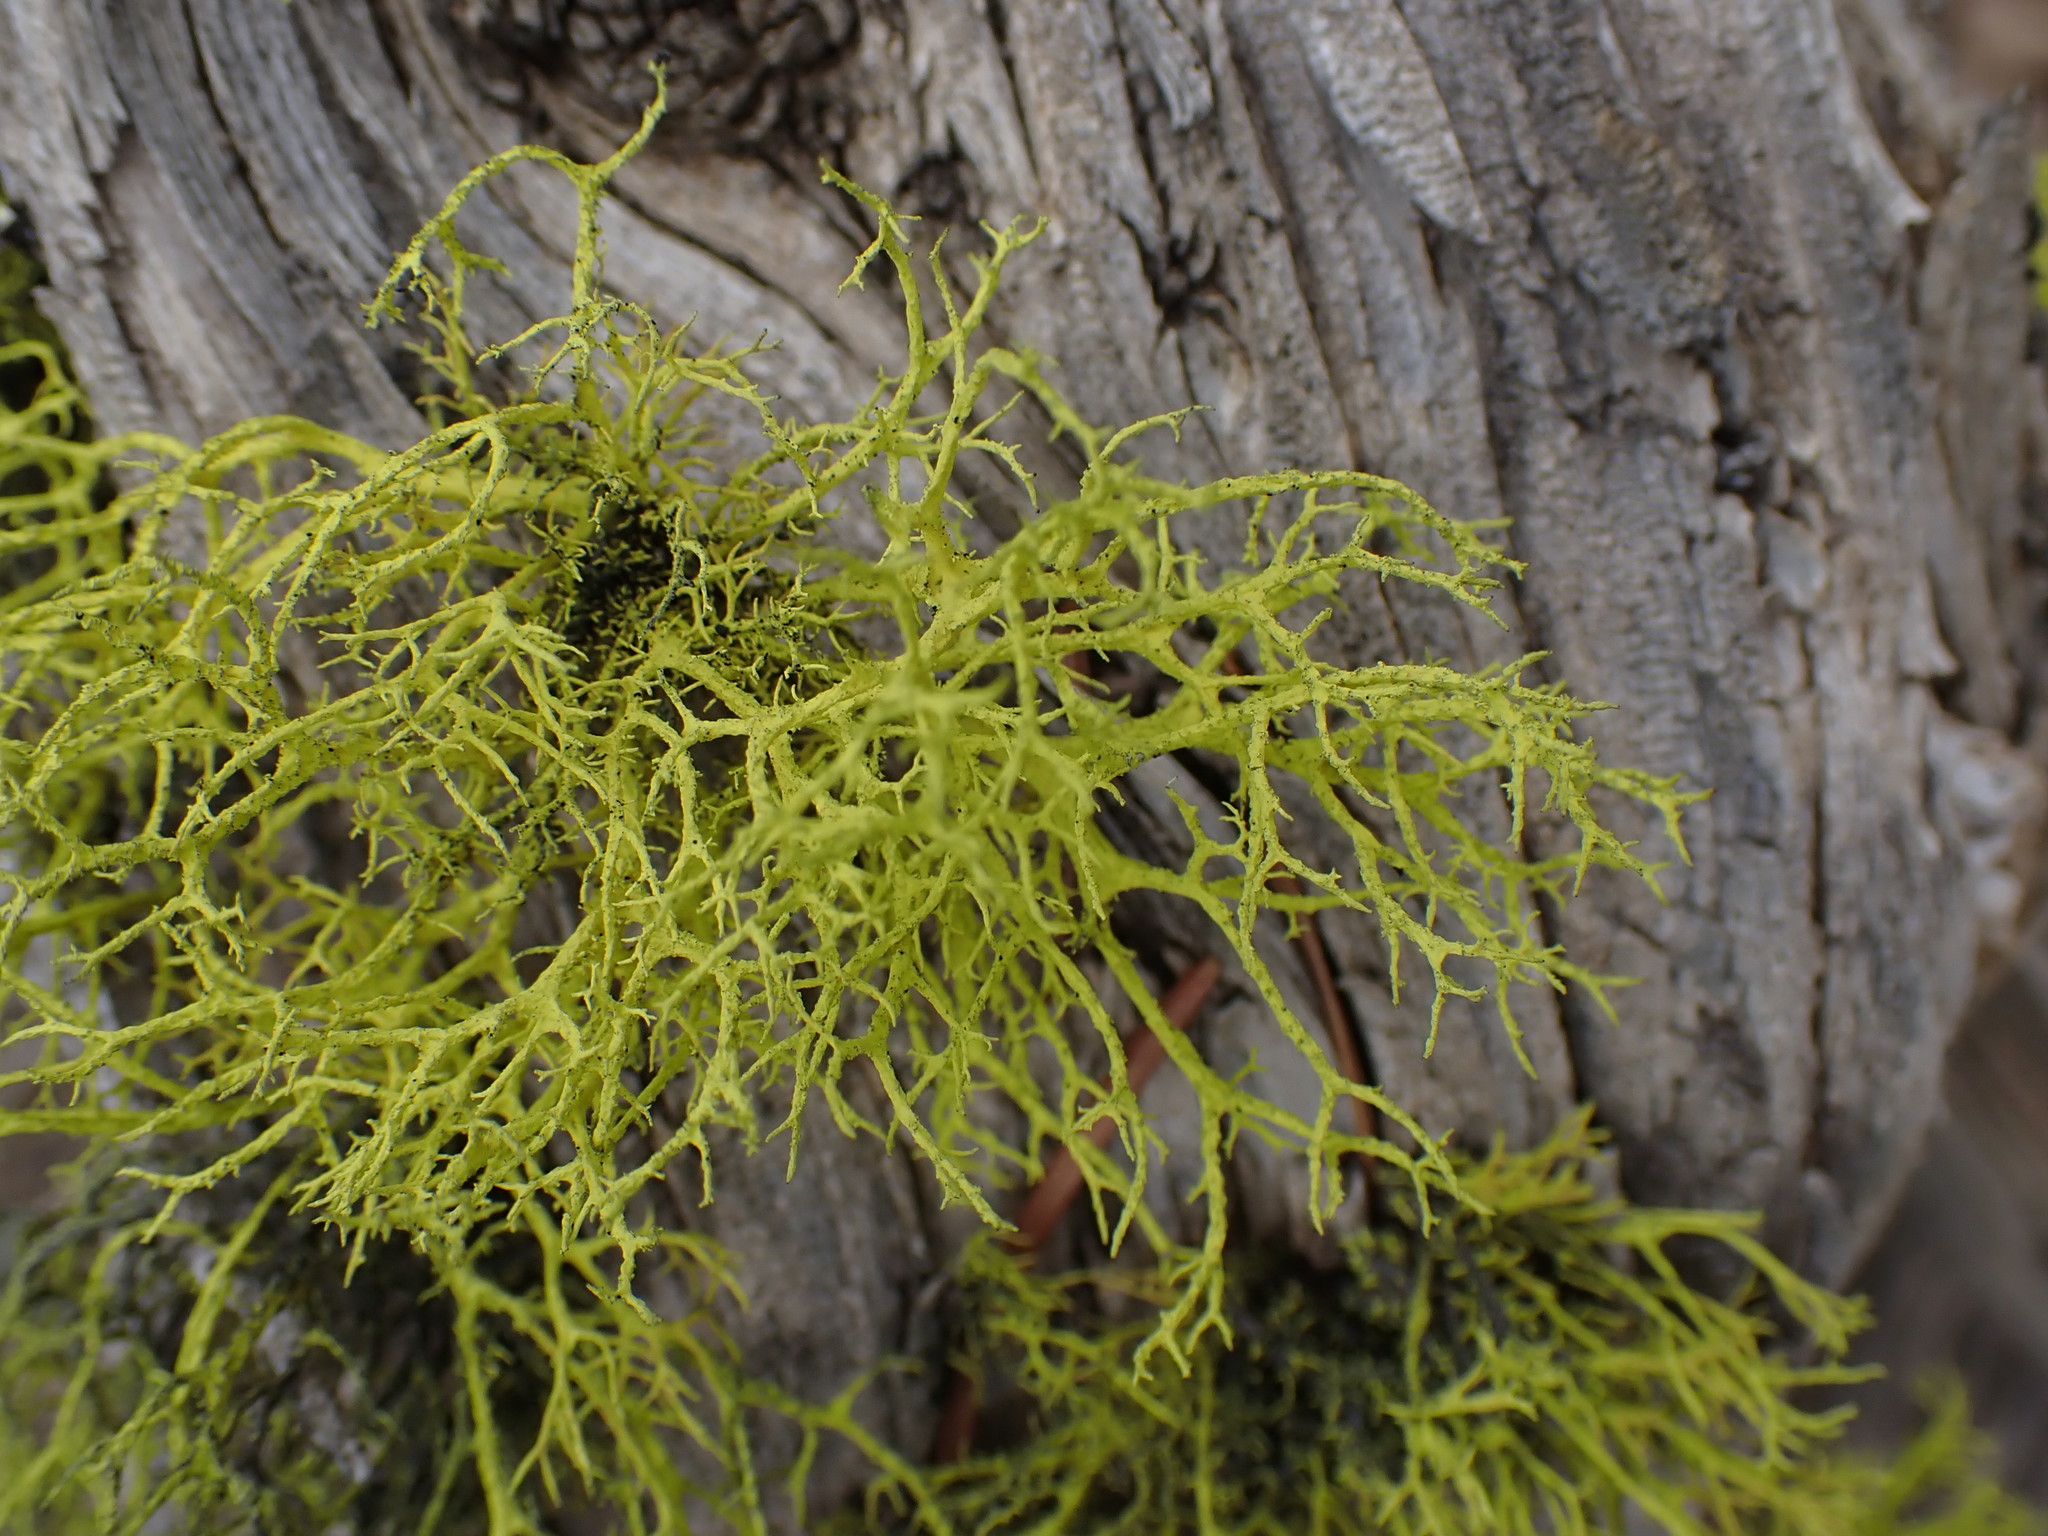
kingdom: Fungi
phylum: Ascomycota
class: Lecanoromycetes
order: Lecanorales
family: Parmeliaceae
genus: Letharia
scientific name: Letharia vulpina
